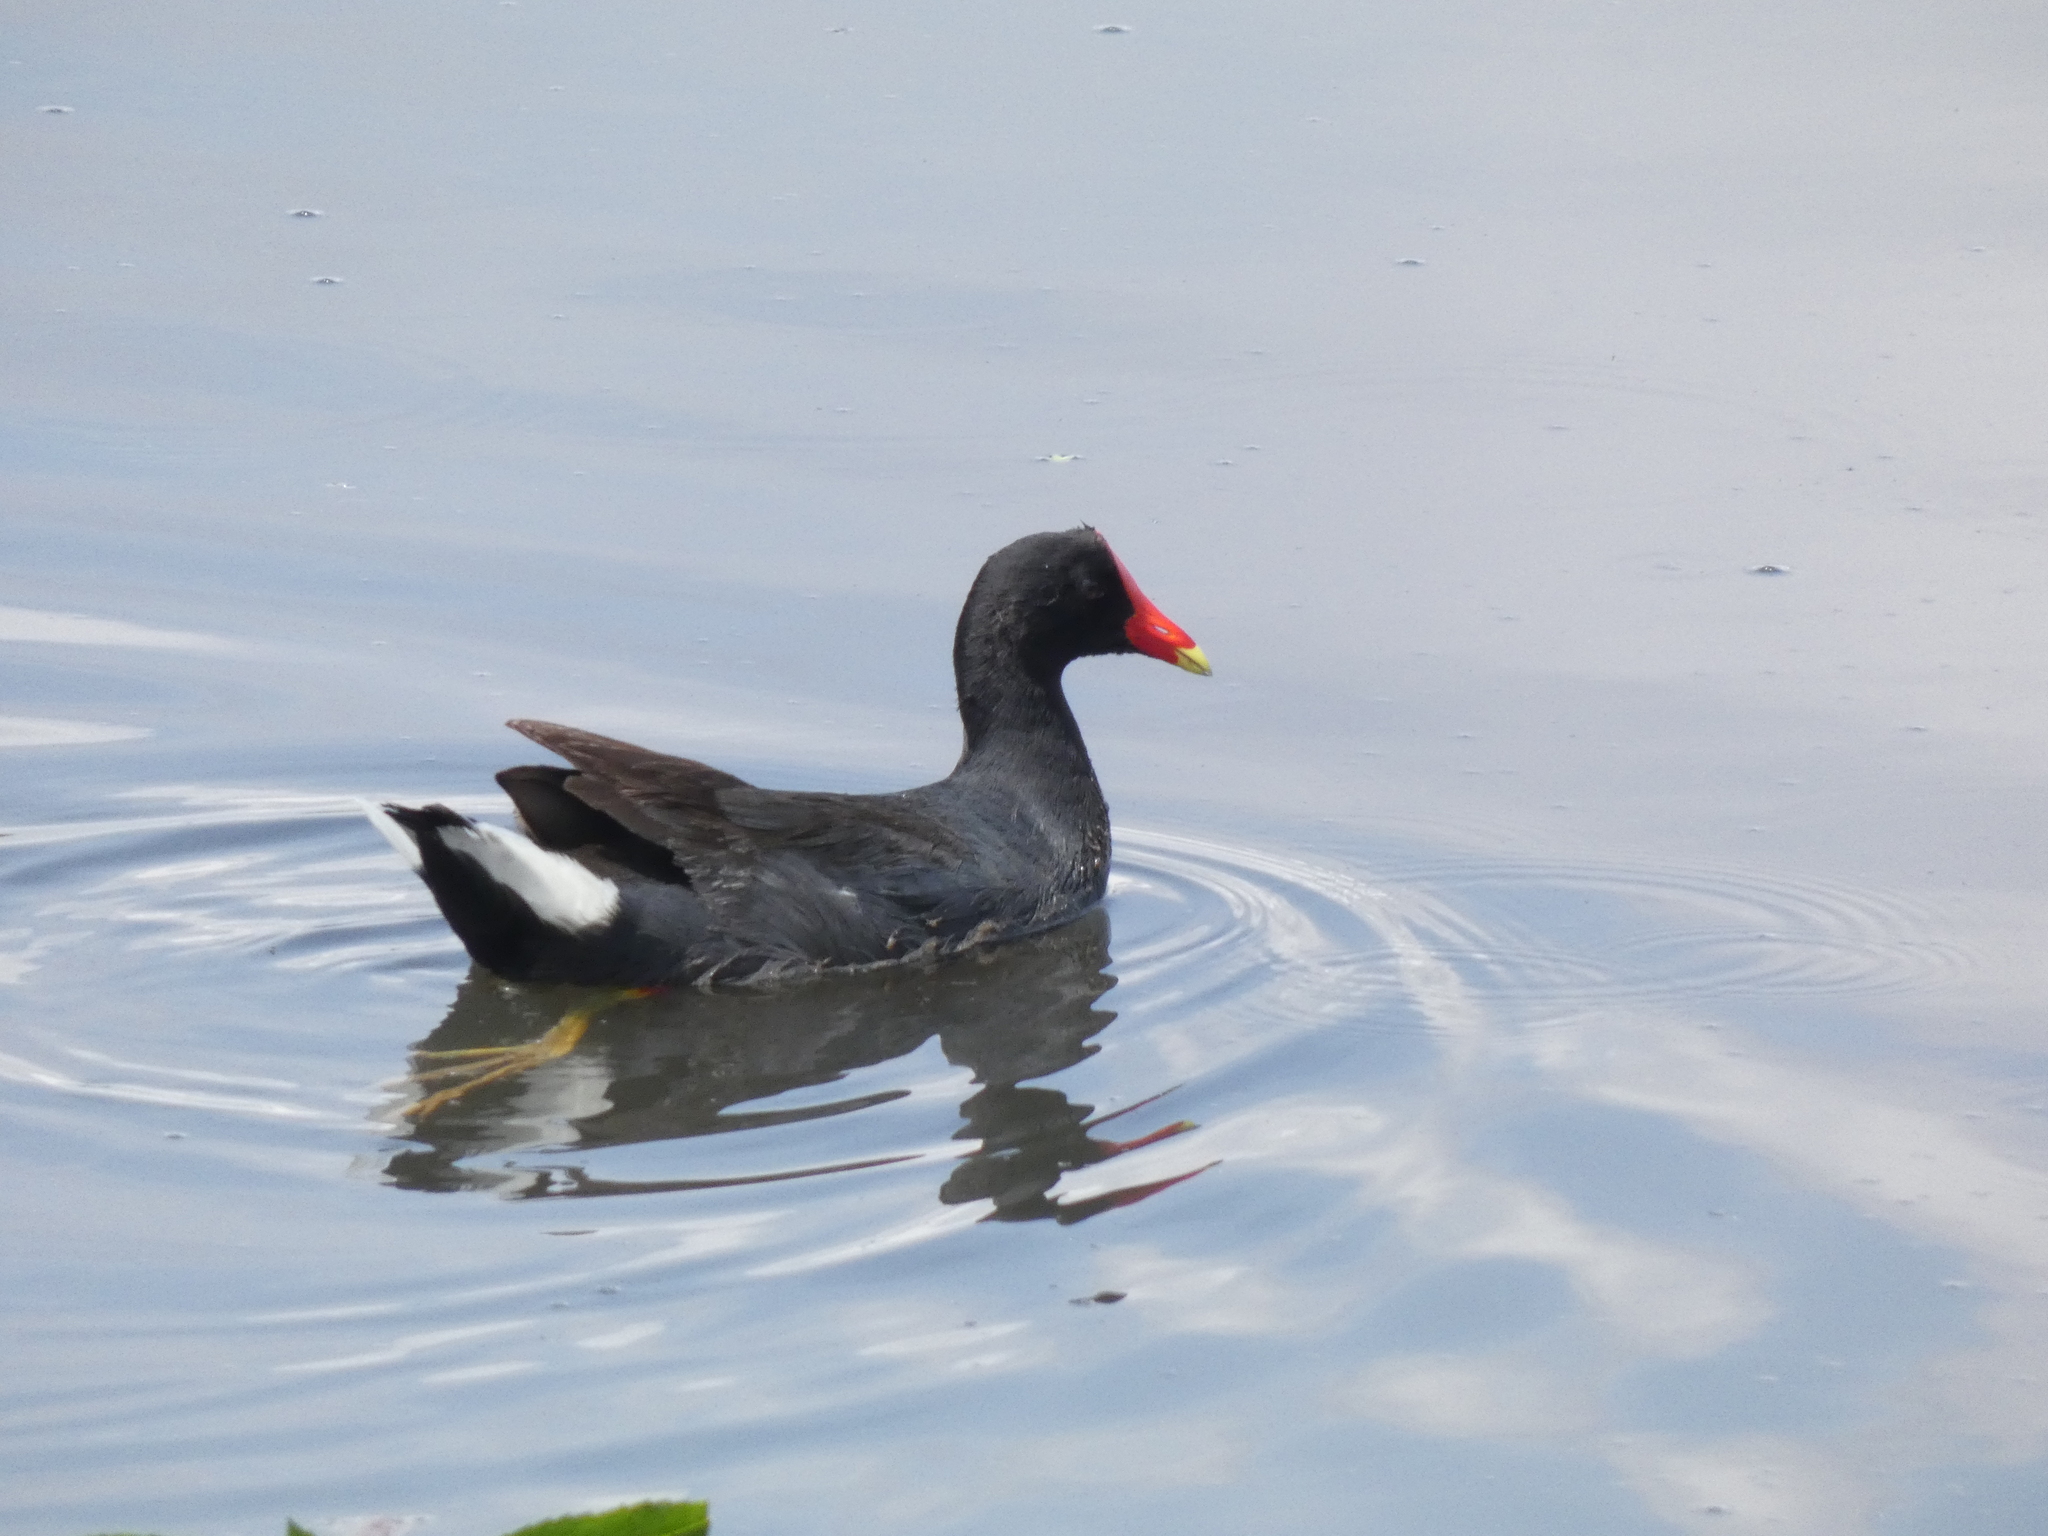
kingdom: Animalia
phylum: Chordata
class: Aves
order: Gruiformes
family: Rallidae
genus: Gallinula
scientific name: Gallinula chloropus
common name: Common moorhen
